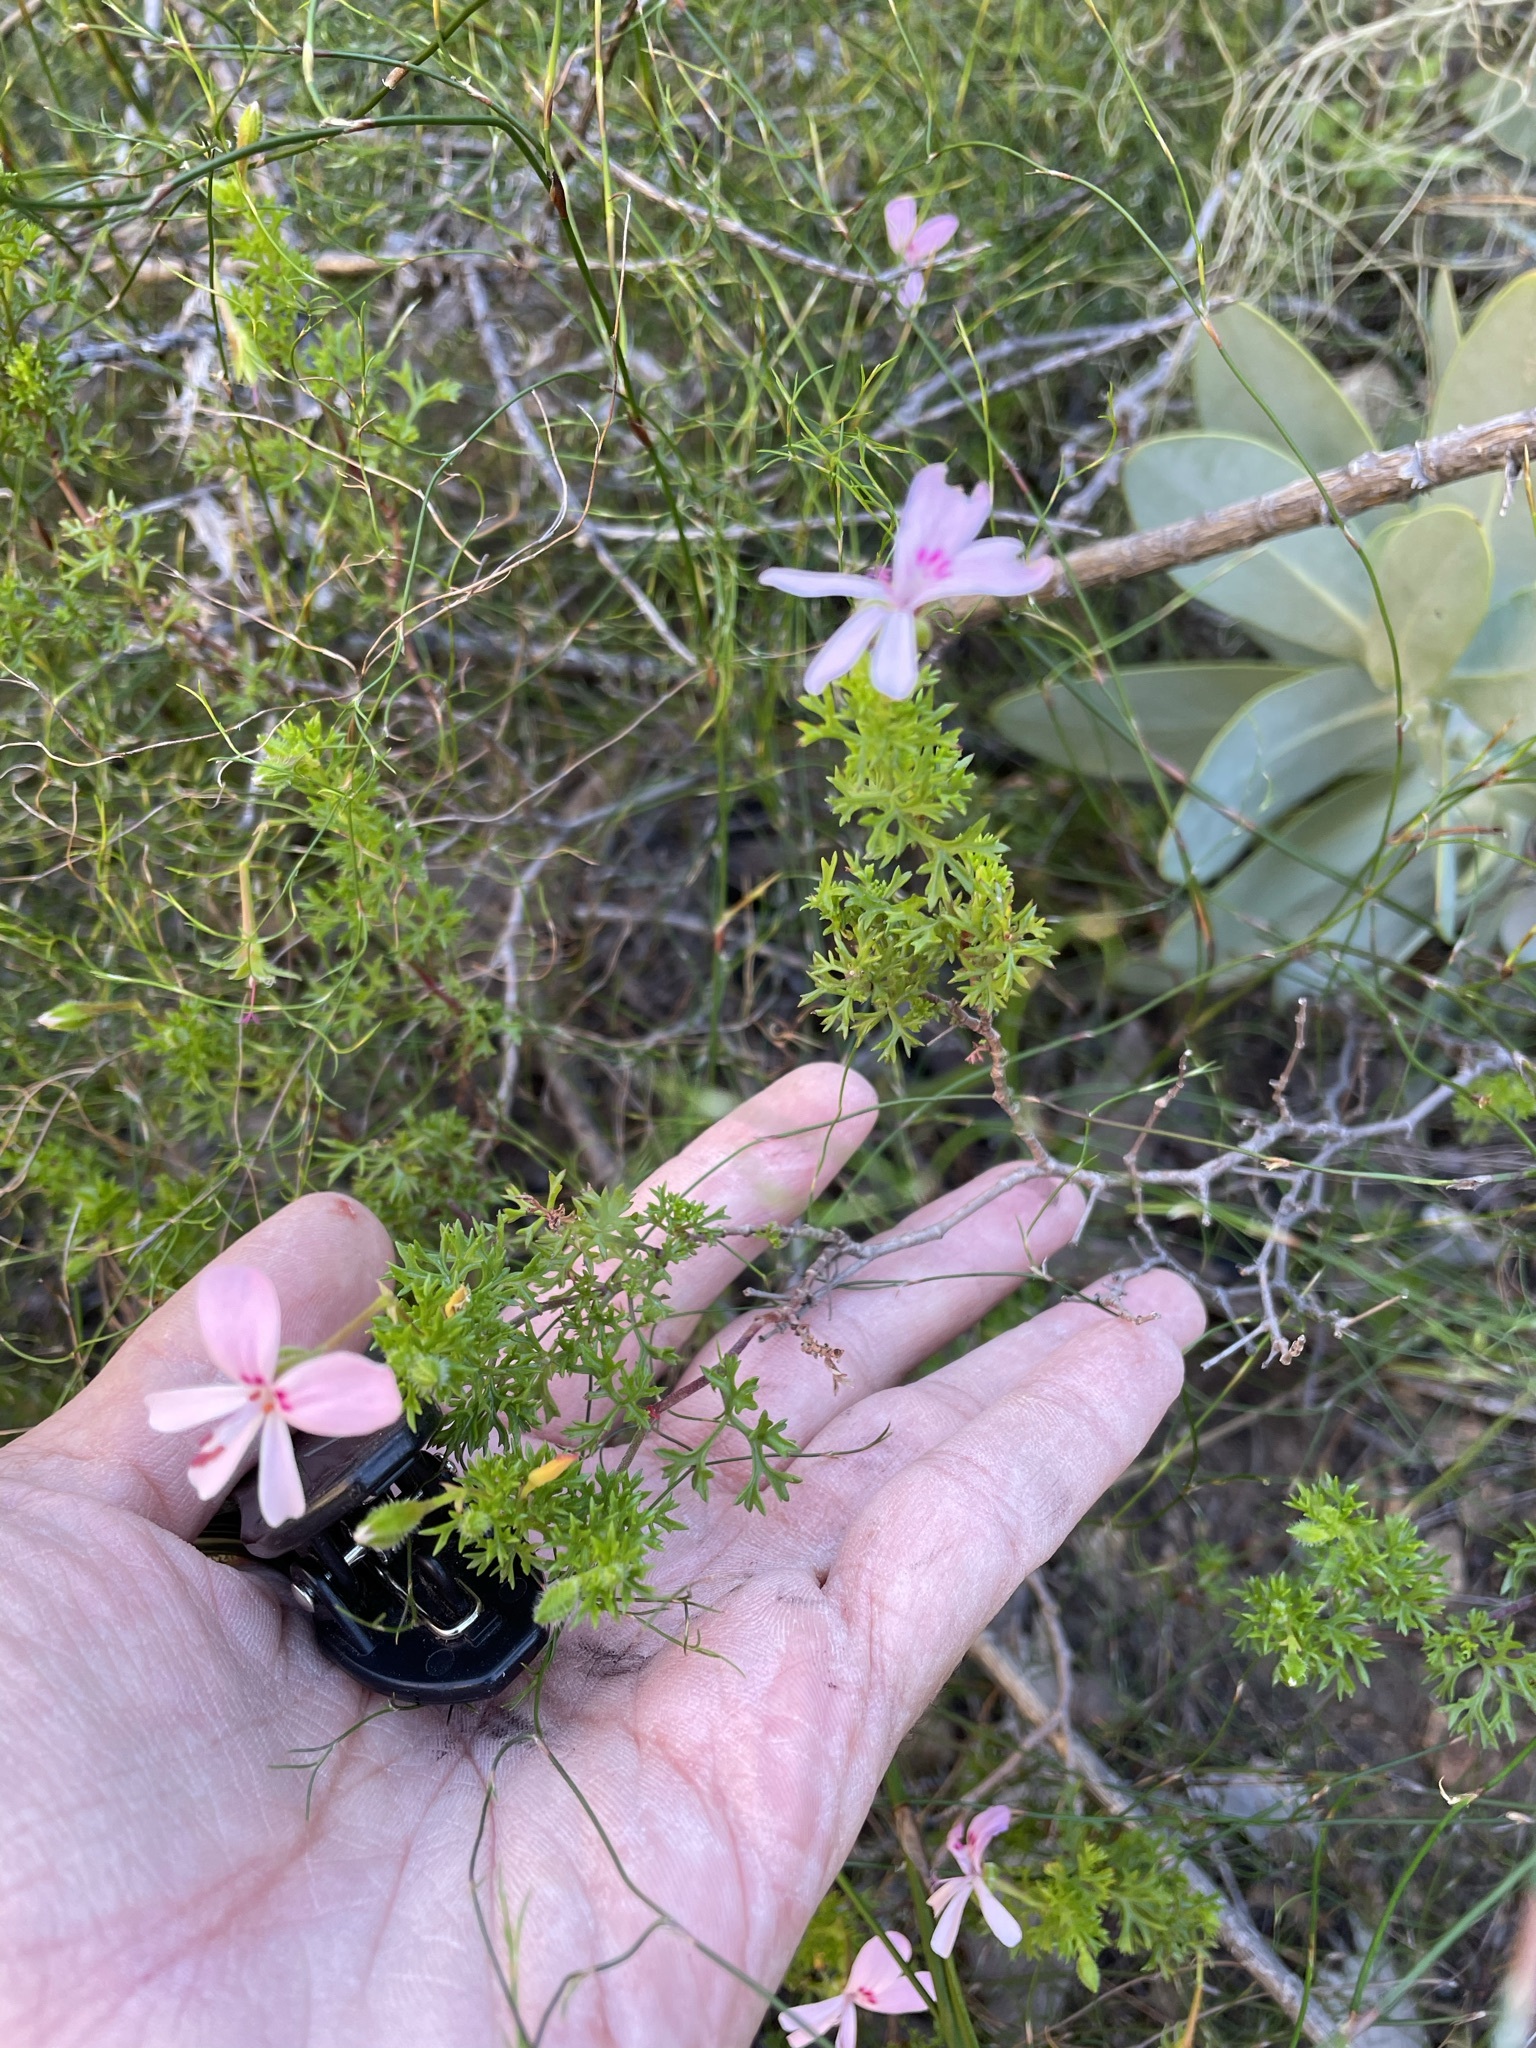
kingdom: Plantae
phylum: Tracheophyta
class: Magnoliopsida
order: Geraniales
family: Geraniaceae
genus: Pelargonium
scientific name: Pelargonium fruticosum
